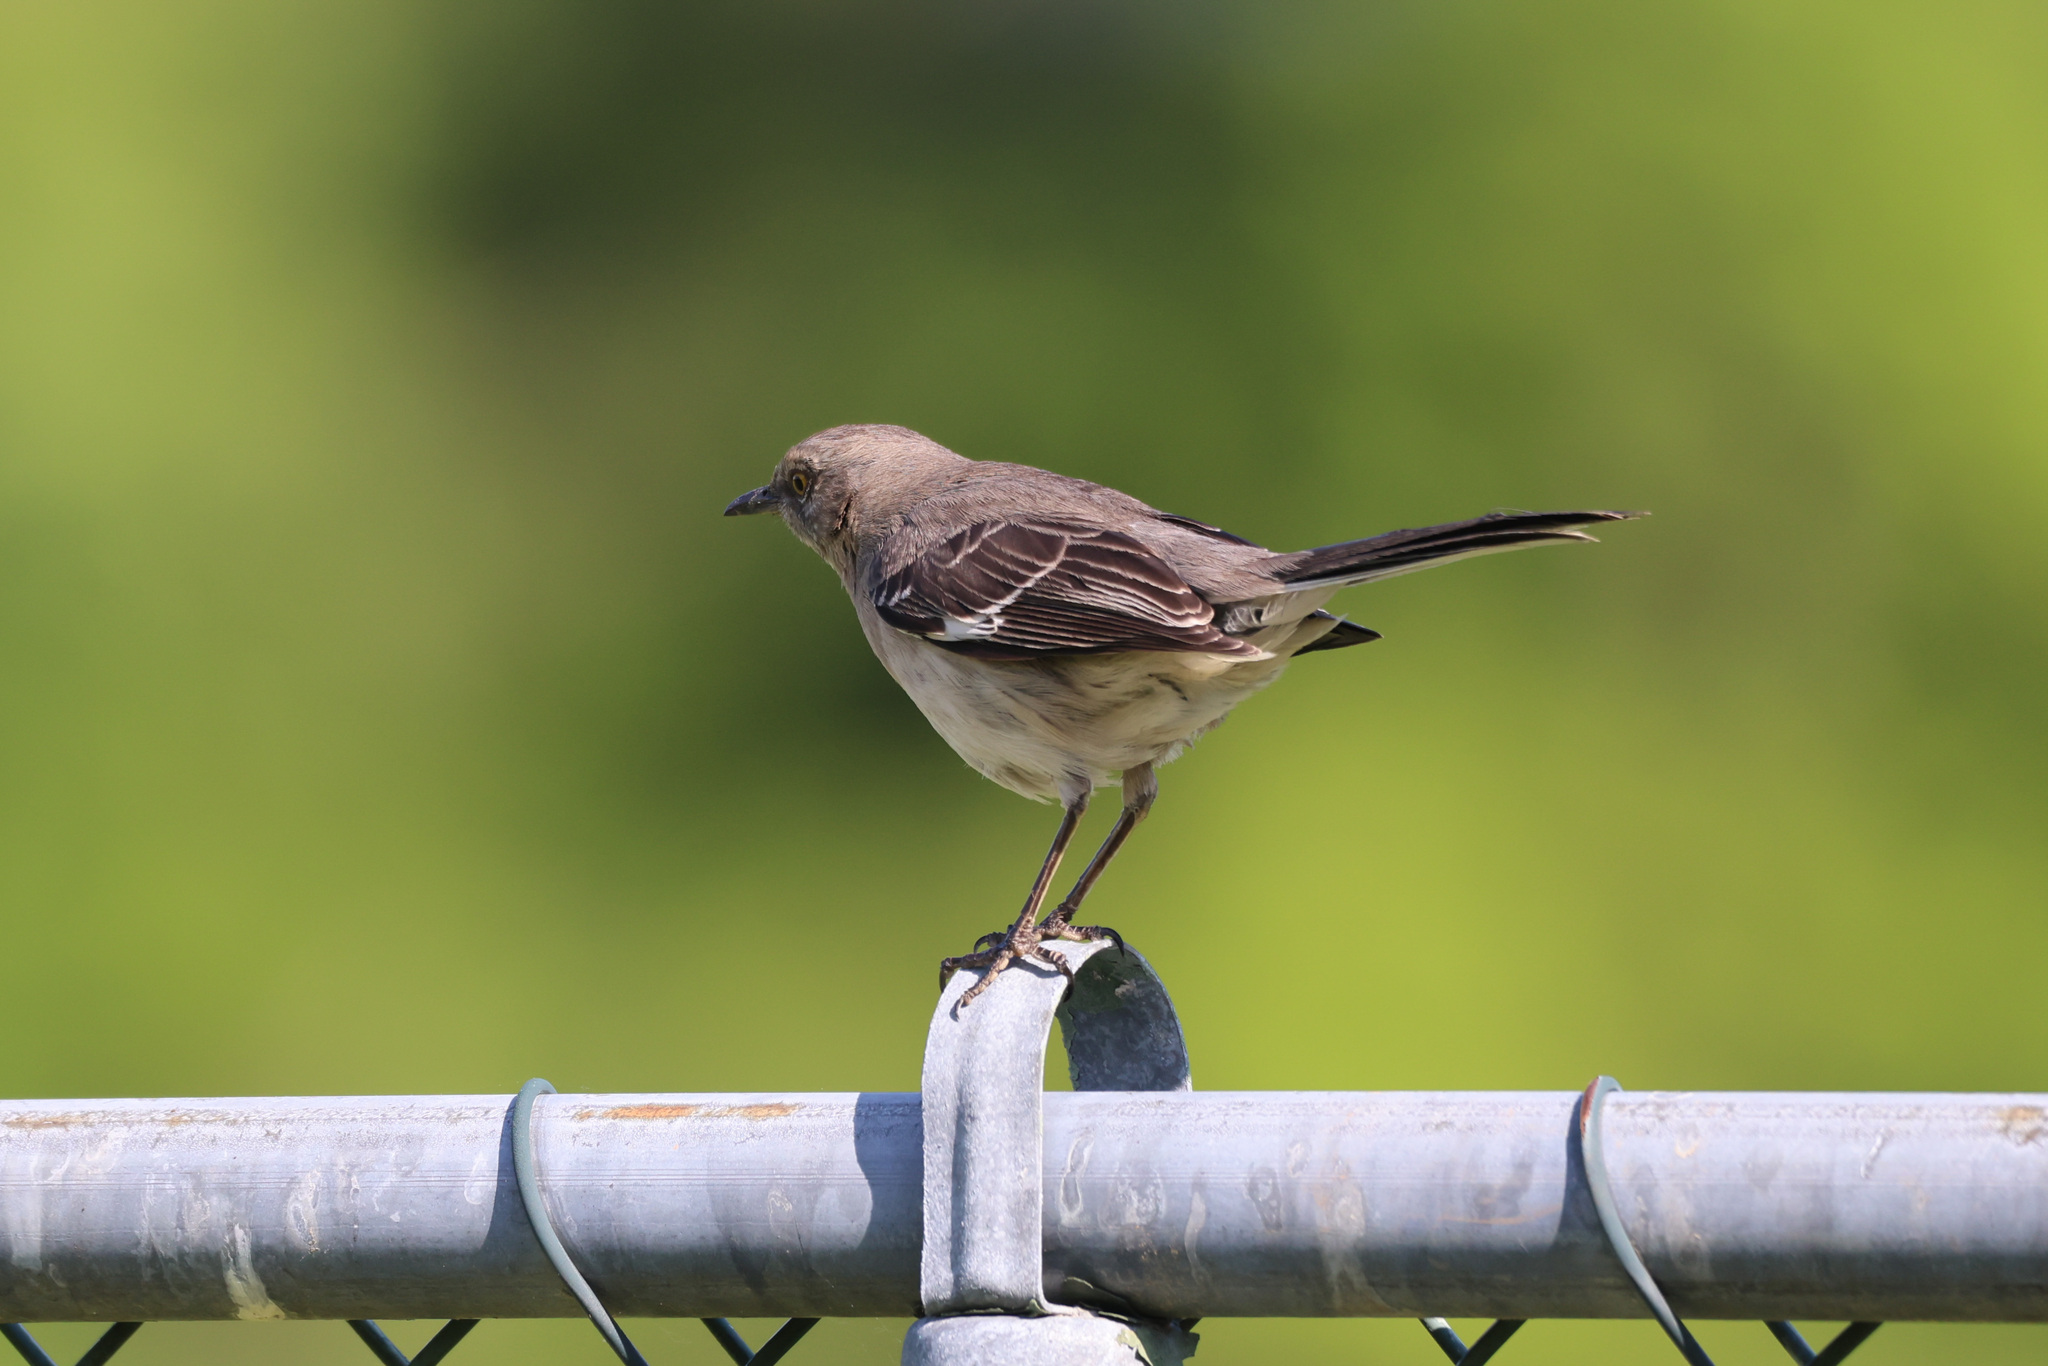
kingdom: Animalia
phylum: Chordata
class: Aves
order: Passeriformes
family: Mimidae
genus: Mimus
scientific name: Mimus polyglottos
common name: Northern mockingbird
